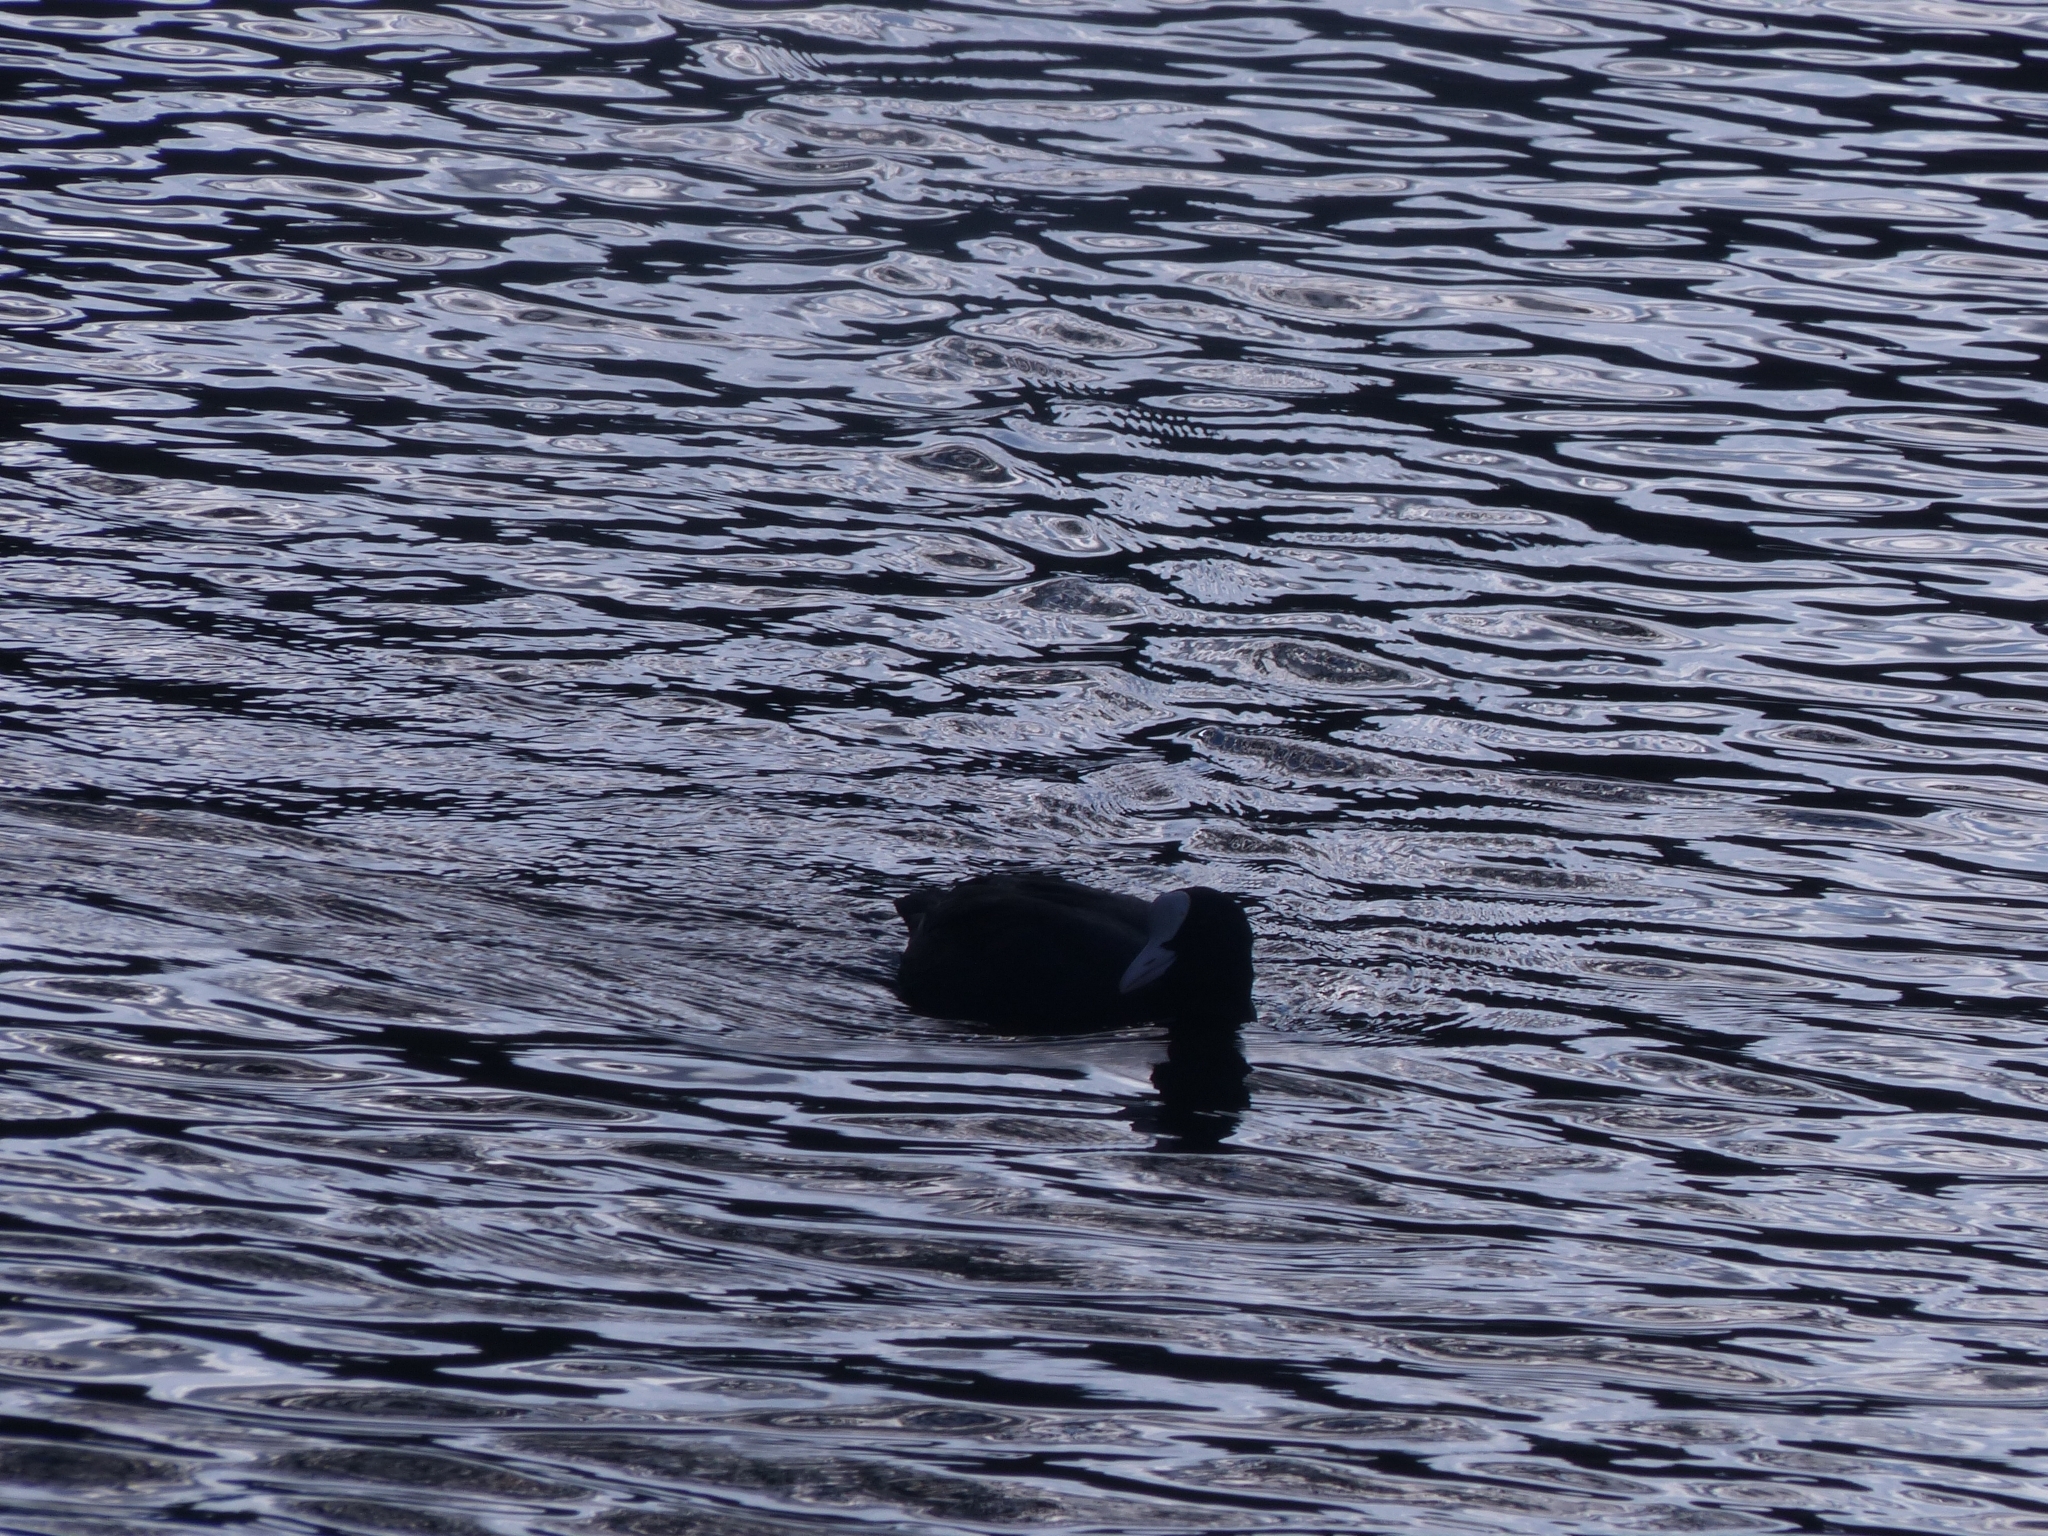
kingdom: Animalia
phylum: Chordata
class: Aves
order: Gruiformes
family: Rallidae
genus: Fulica
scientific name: Fulica atra
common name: Eurasian coot
